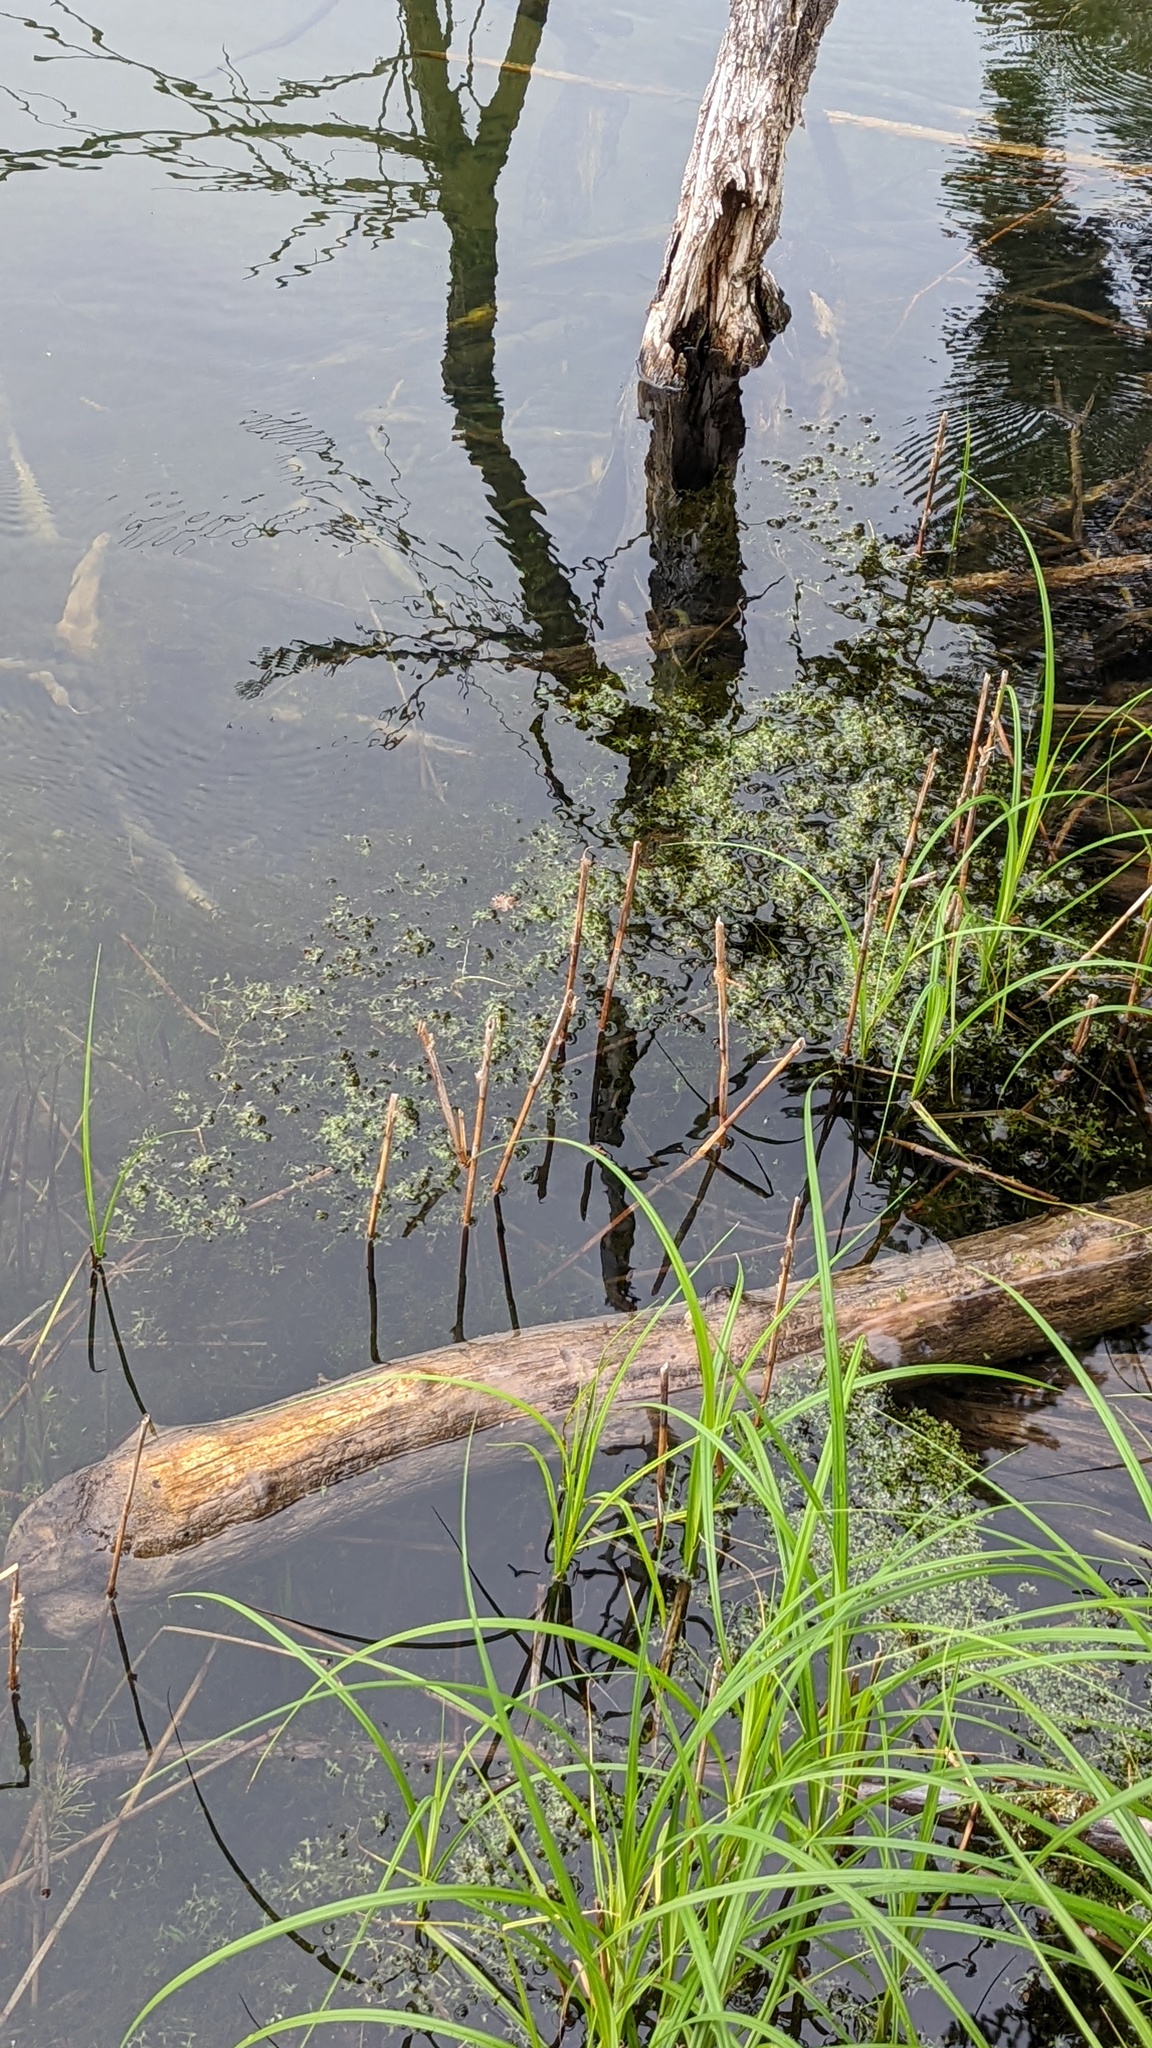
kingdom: Plantae
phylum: Tracheophyta
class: Liliopsida
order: Alismatales
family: Araceae
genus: Lemna
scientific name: Lemna trisulca
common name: Ivy-leaved duckweed
